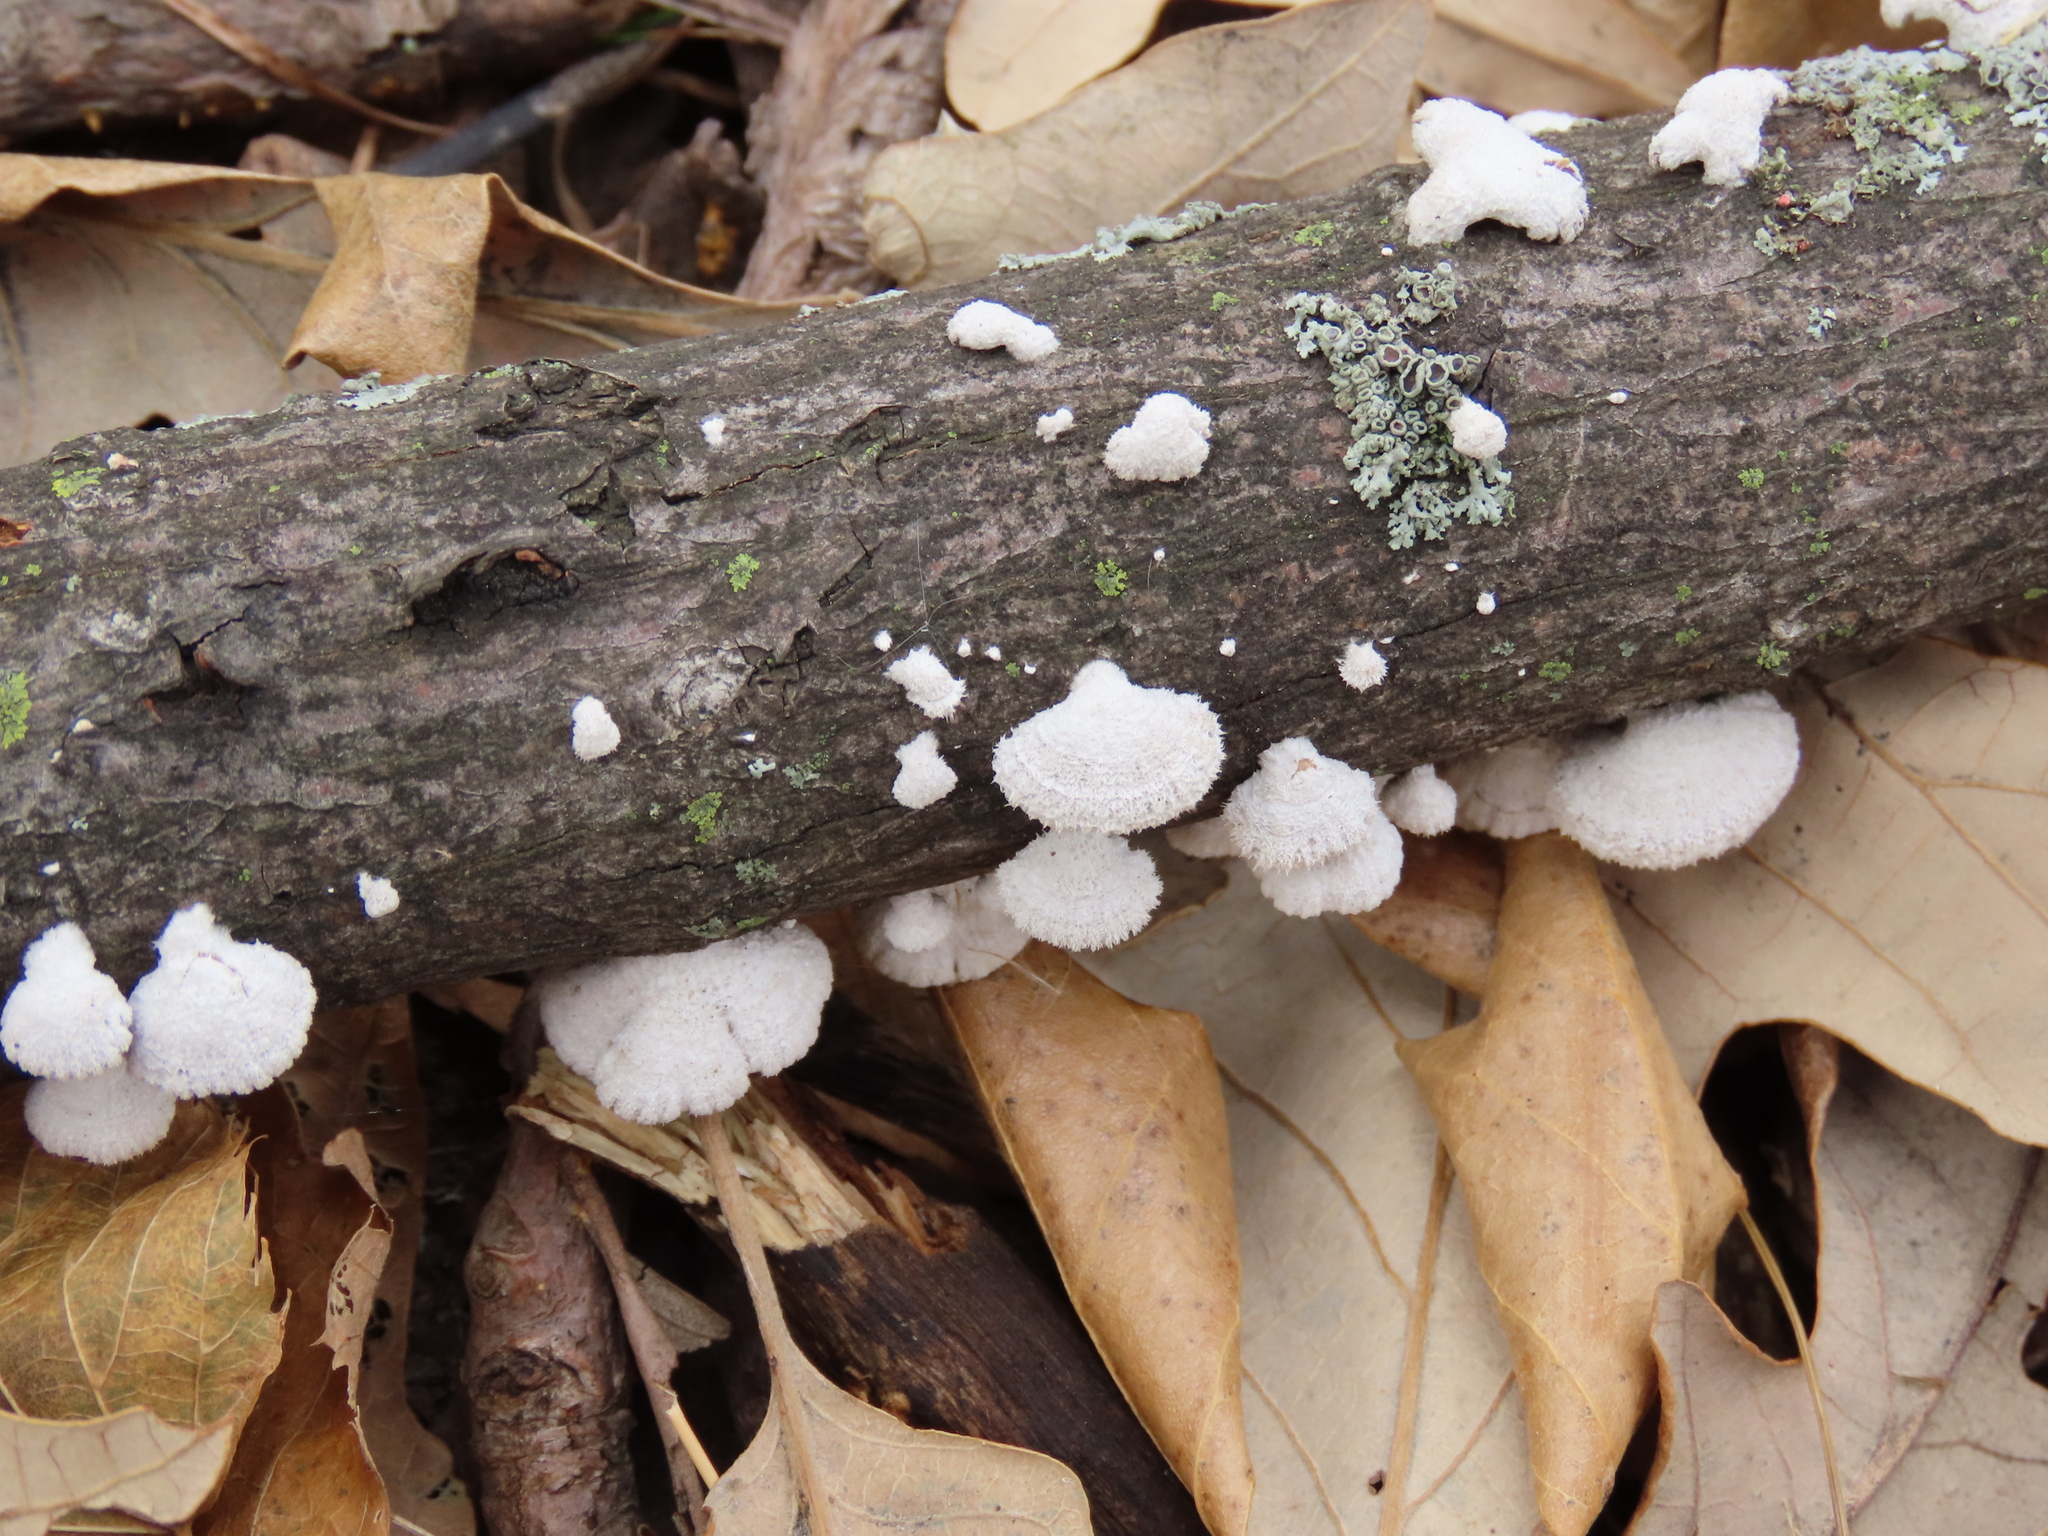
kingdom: Fungi
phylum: Basidiomycota
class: Agaricomycetes
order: Agaricales
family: Schizophyllaceae
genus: Schizophyllum
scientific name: Schizophyllum commune
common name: Common porecrust
